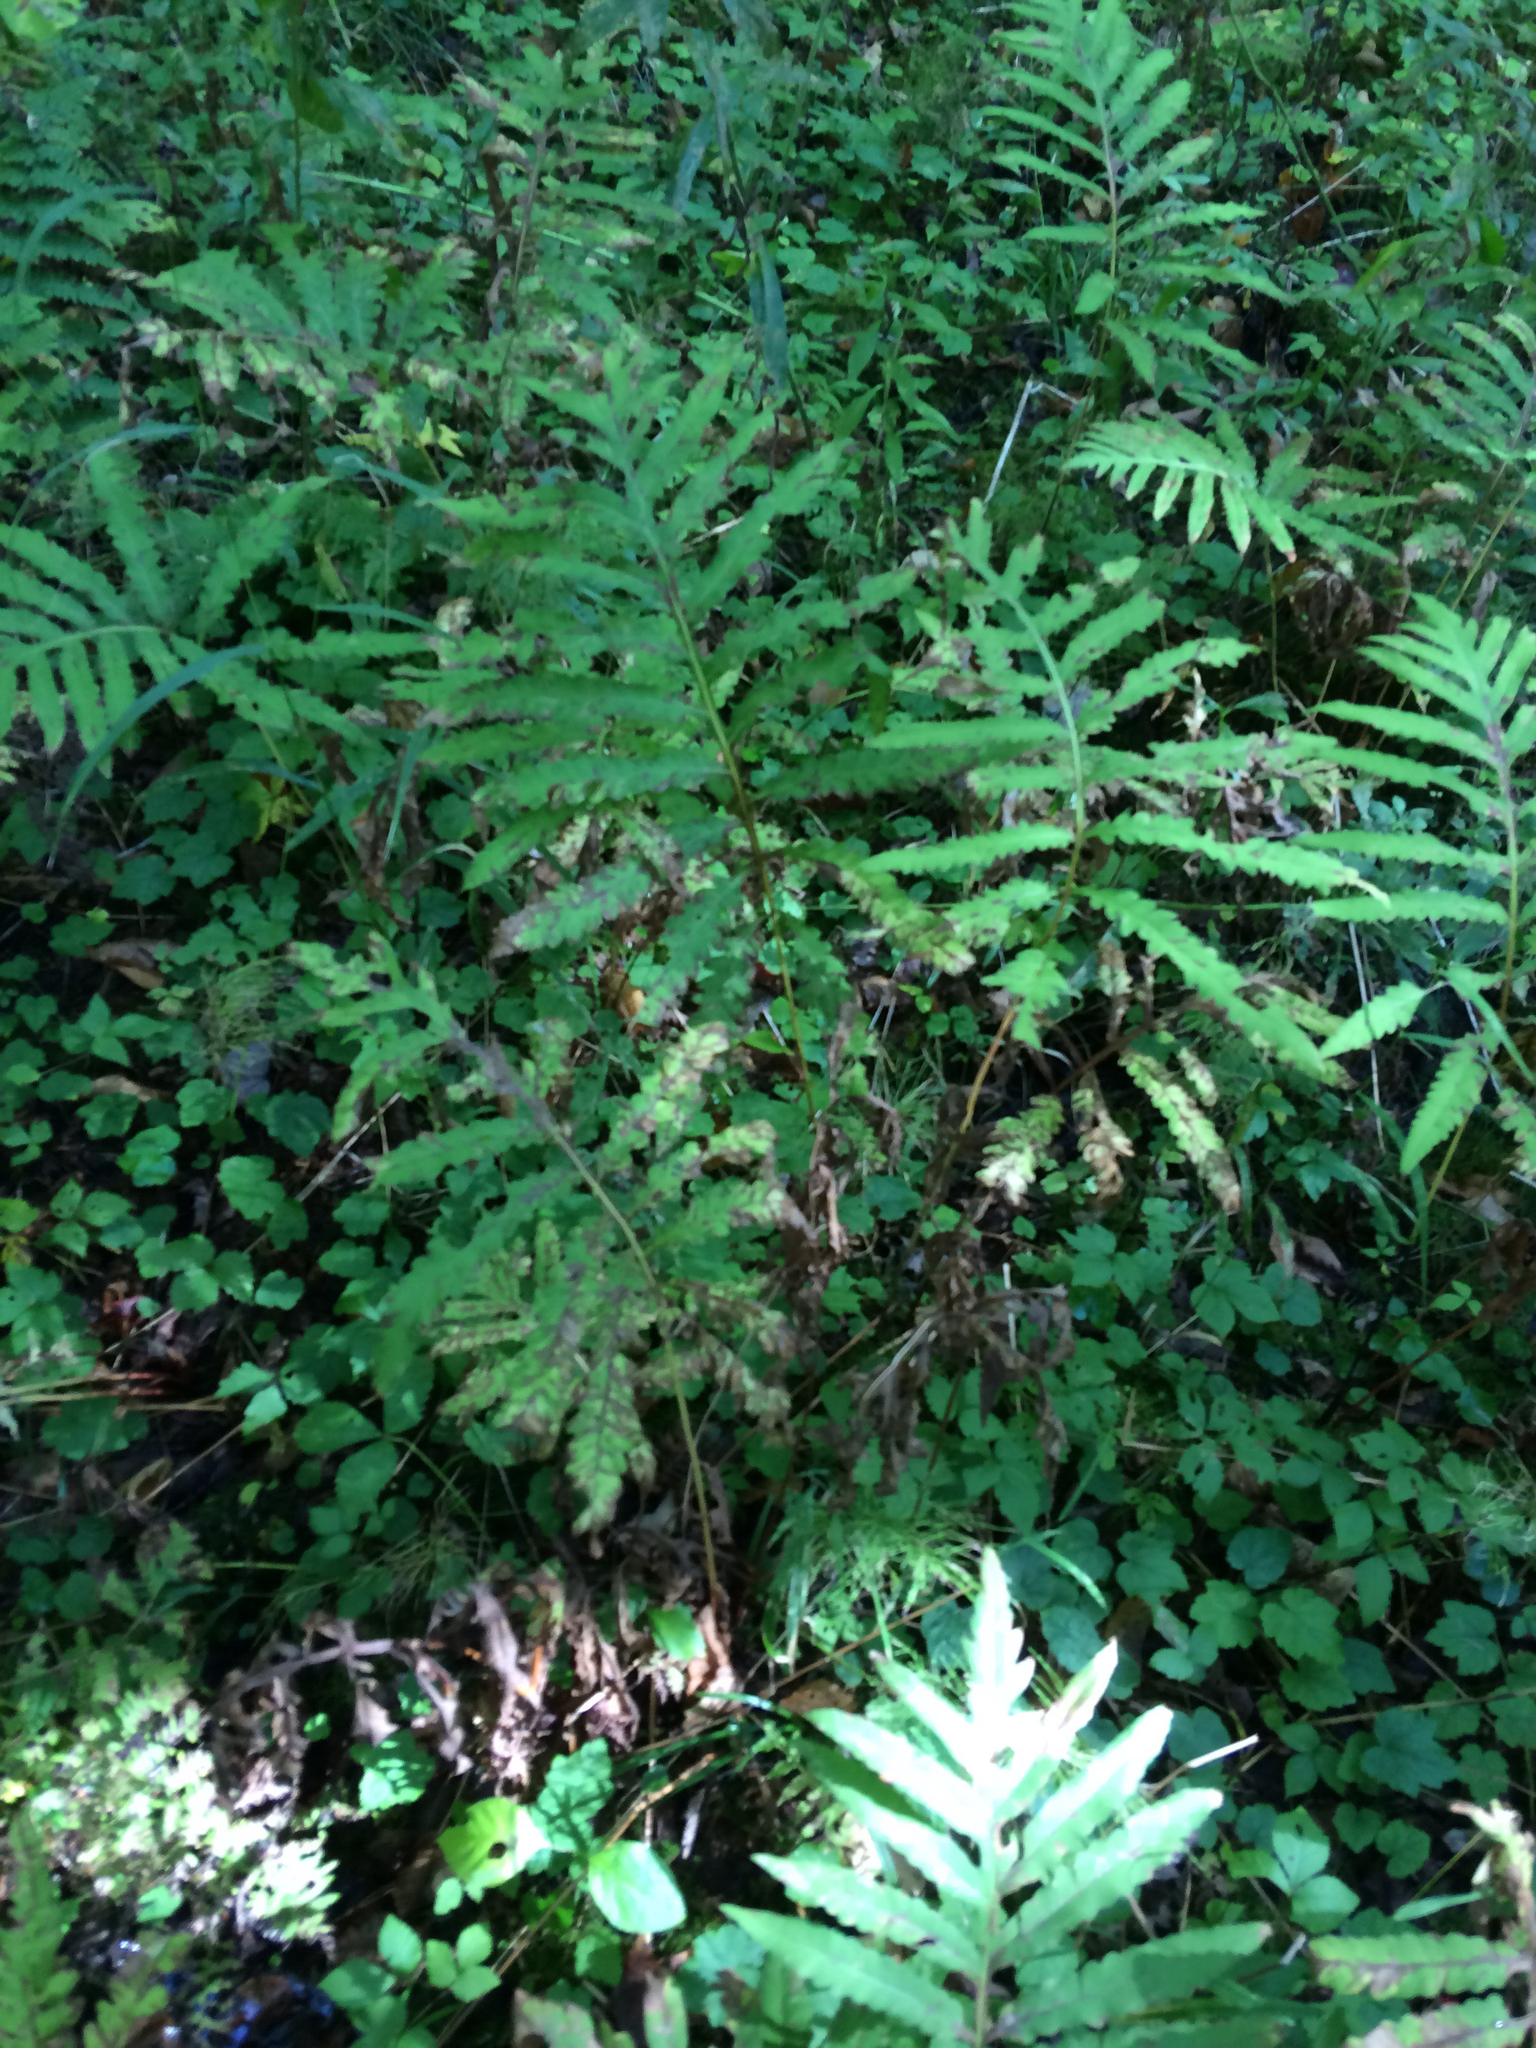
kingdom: Plantae
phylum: Tracheophyta
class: Magnoliopsida
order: Saxifragales
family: Saxifragaceae
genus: Tiarella
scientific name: Tiarella stolonifera
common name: Stoloniferous foamflower
